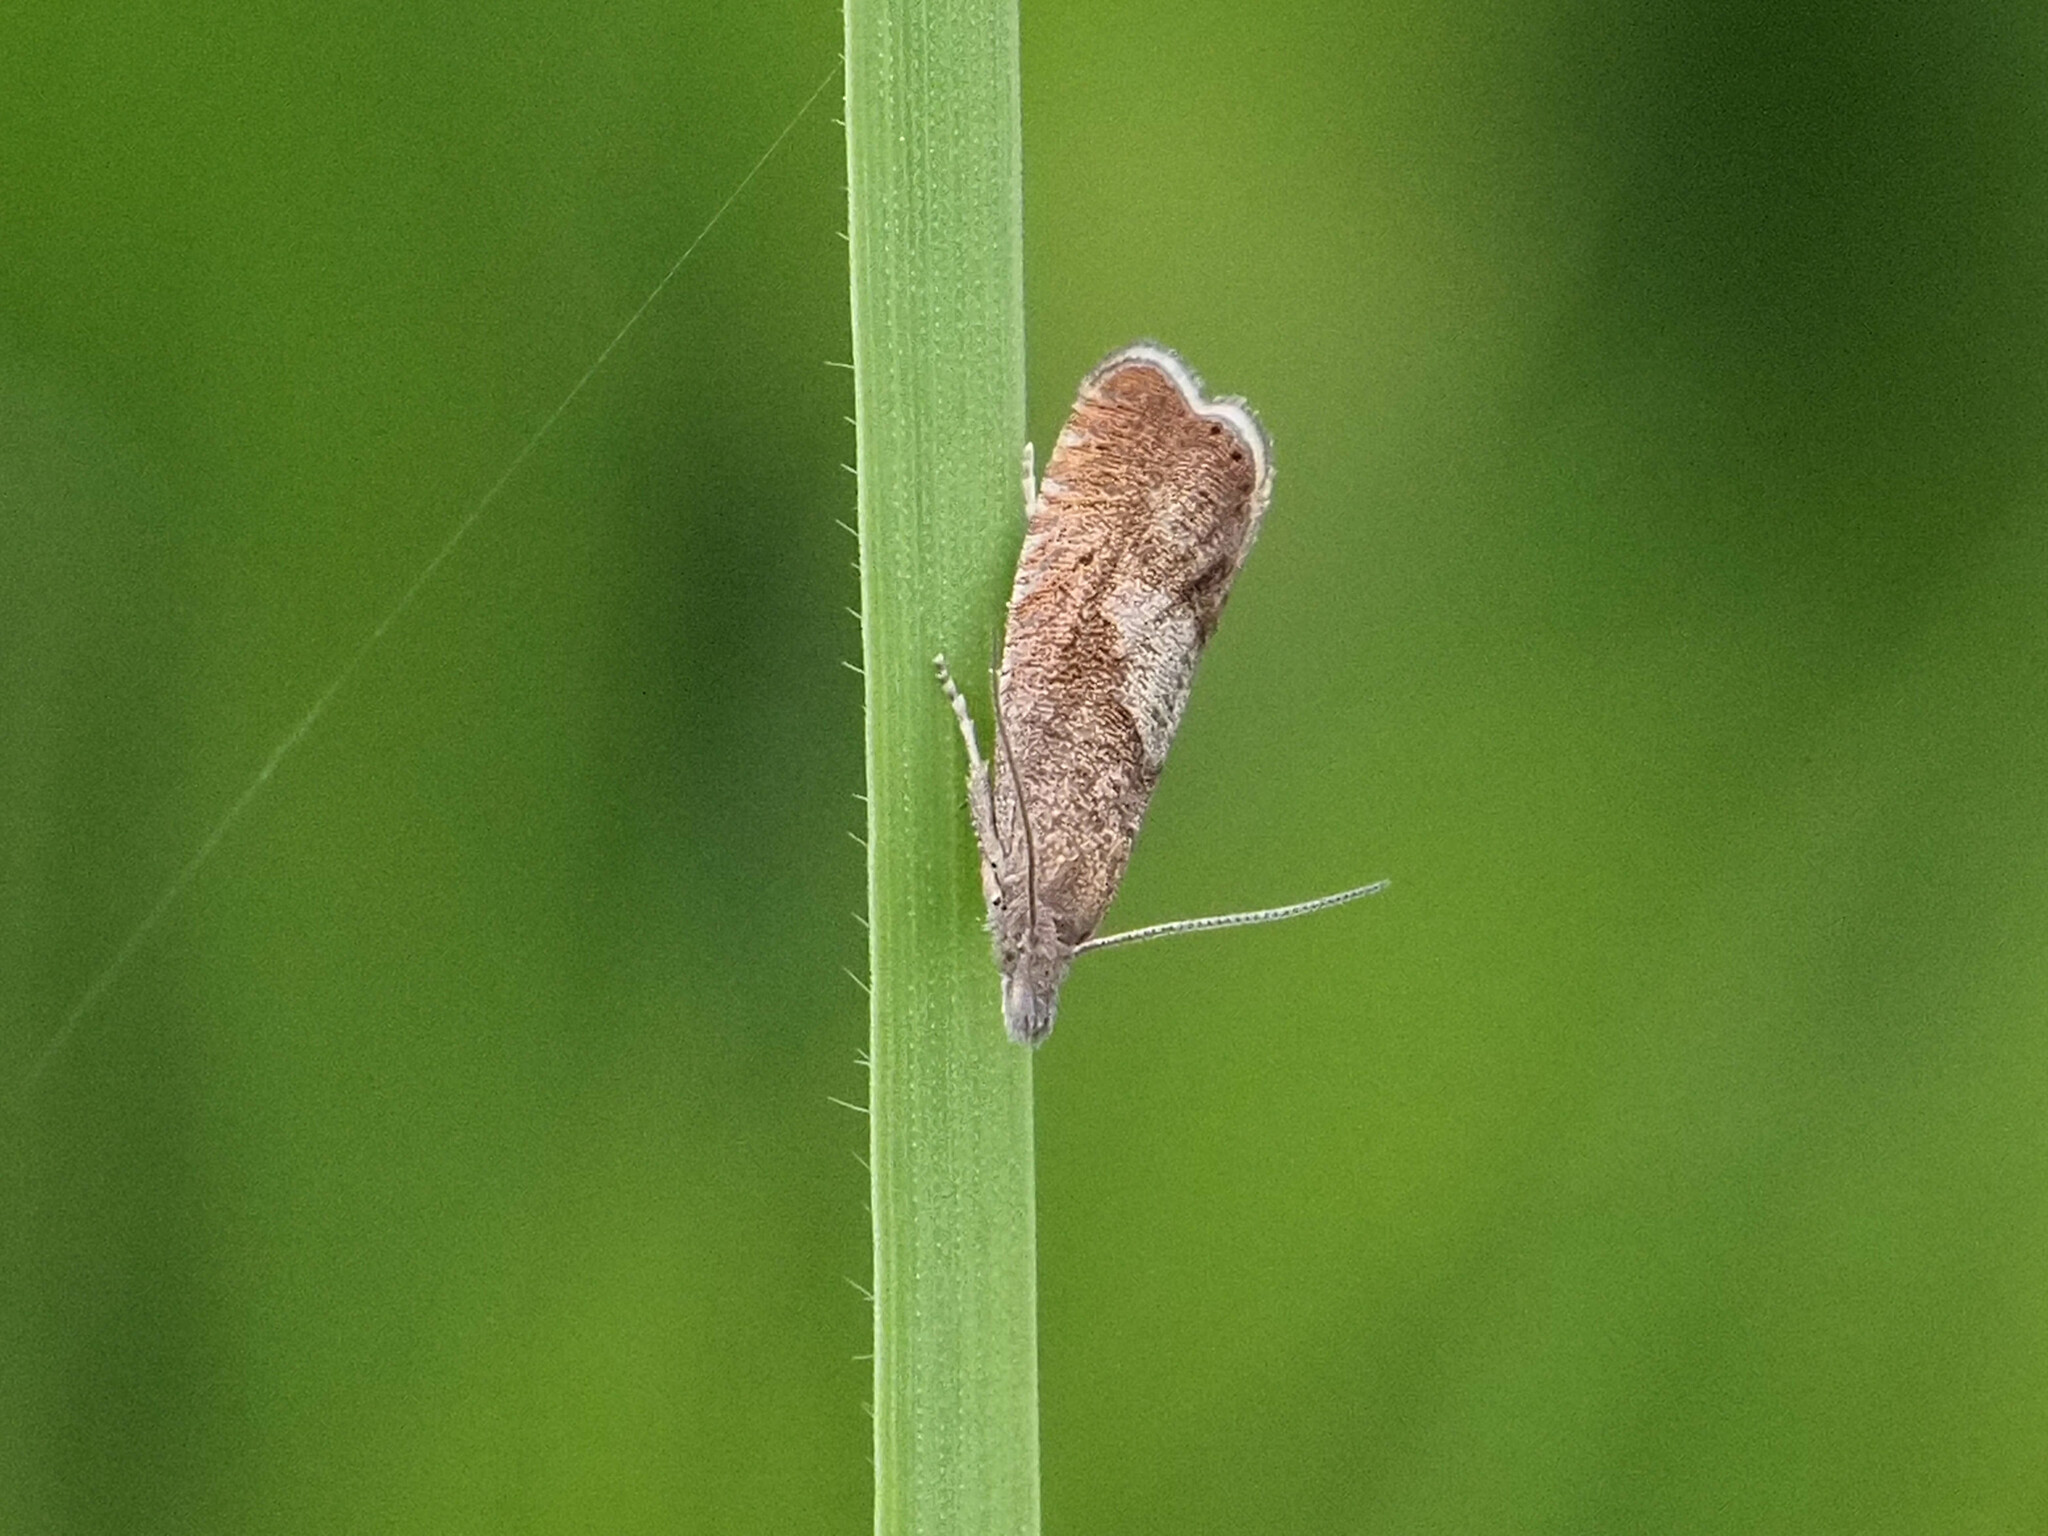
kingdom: Animalia
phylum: Arthropoda
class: Insecta
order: Lepidoptera
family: Tortricidae
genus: Dichrorampha
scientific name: Dichrorampha acuminatana
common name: Sharp-winged drill
